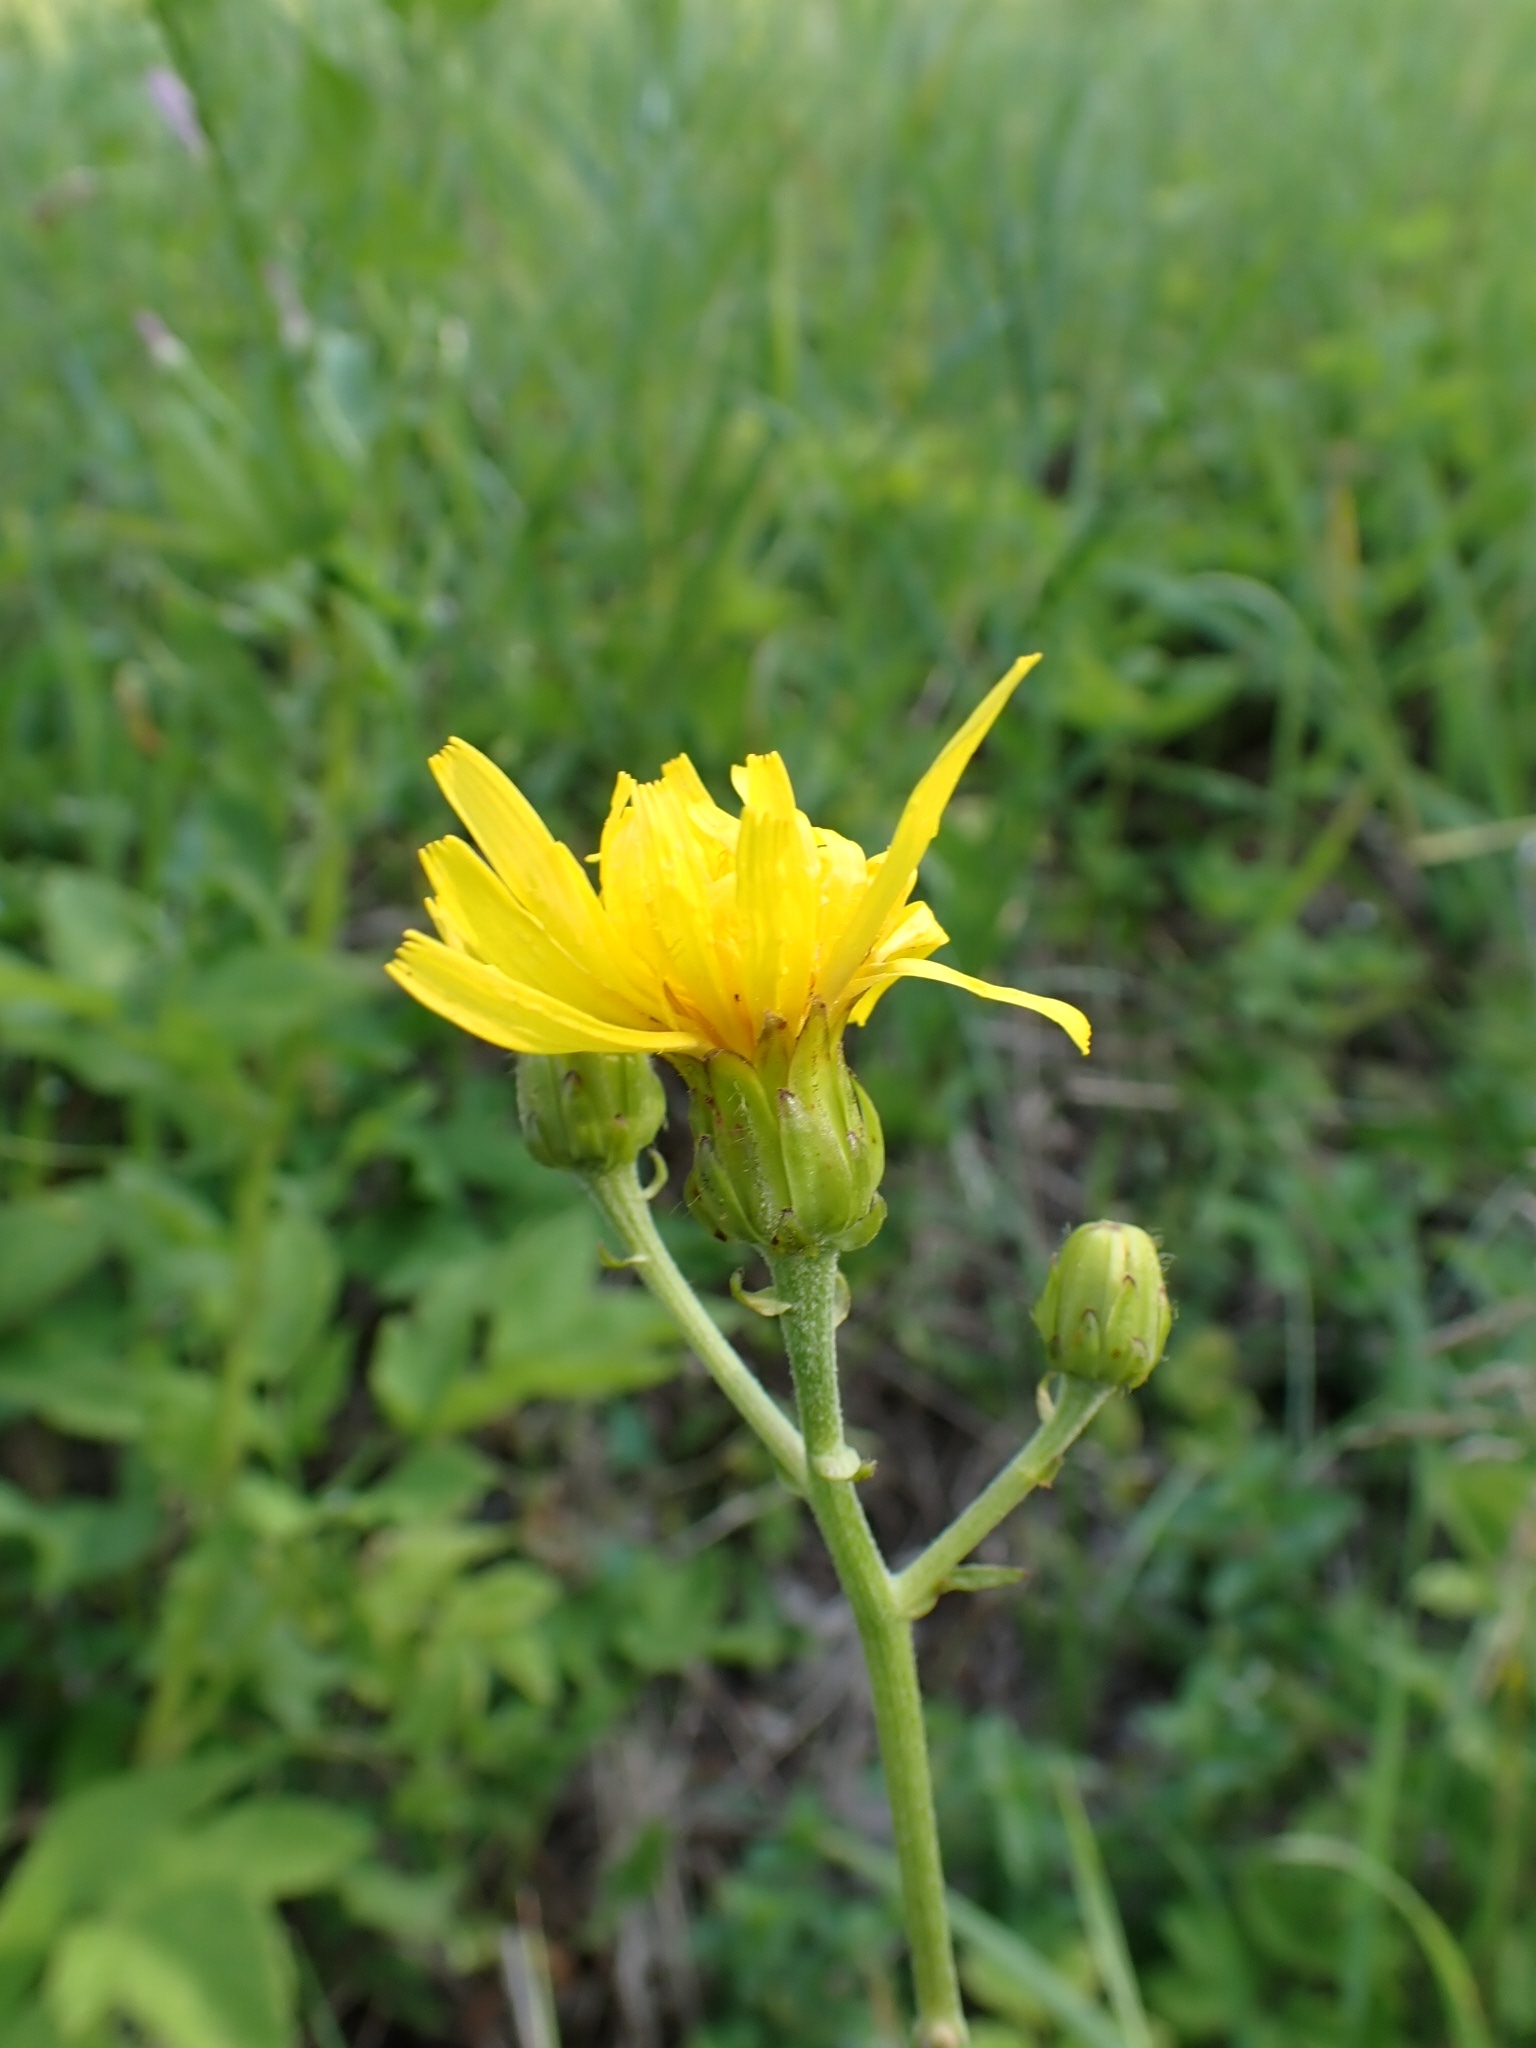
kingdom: Plantae
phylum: Tracheophyta
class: Magnoliopsida
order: Asterales
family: Asteraceae
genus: Hieracium
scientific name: Hieracium umbellatum
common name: Northern hawkweed
